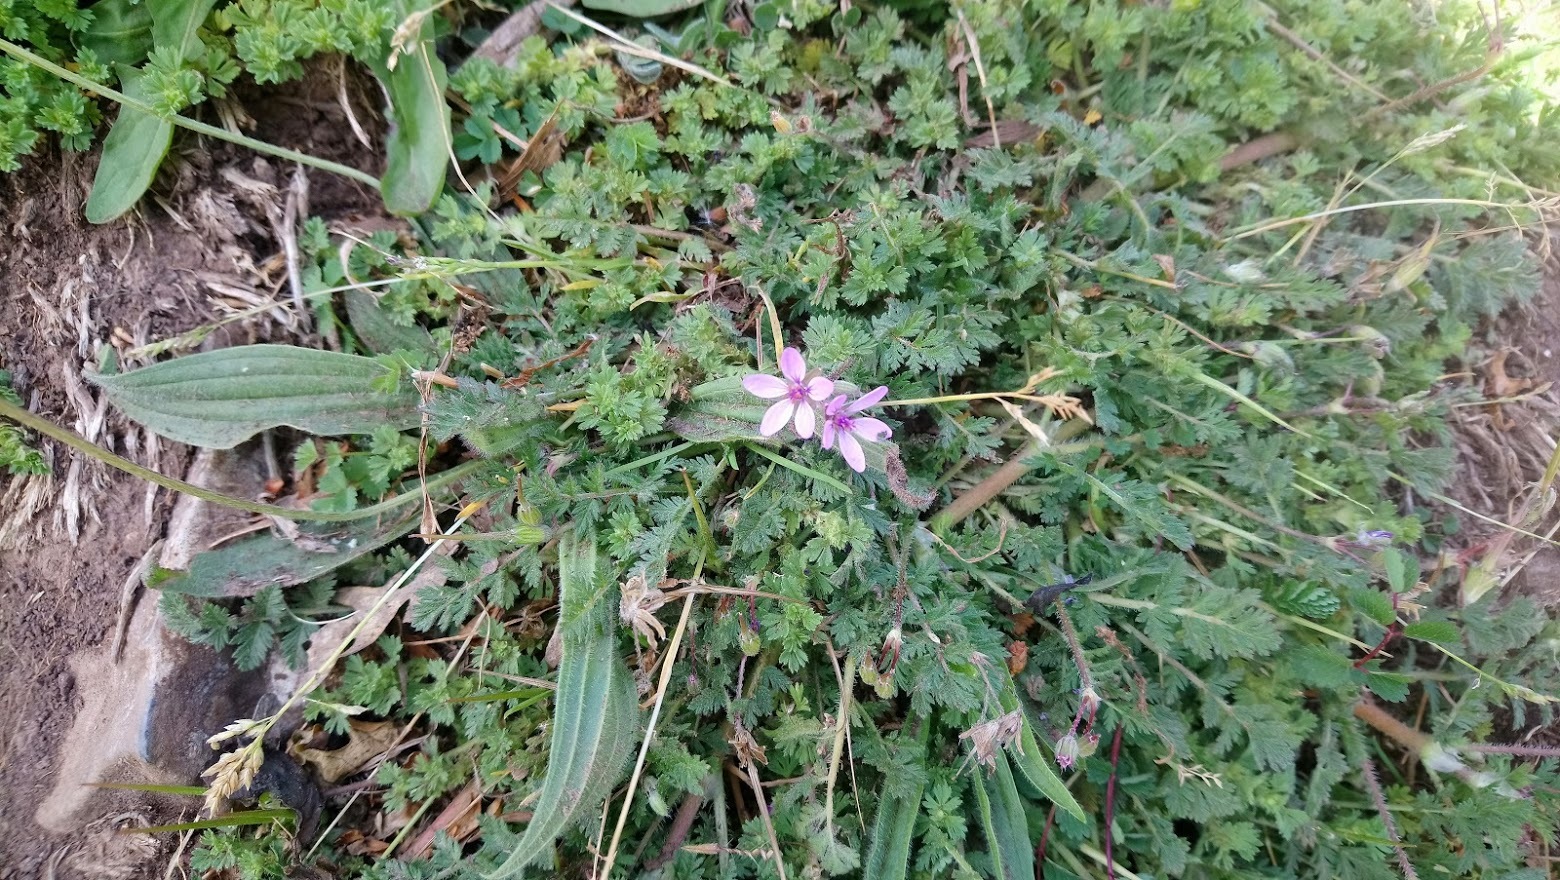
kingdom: Plantae
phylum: Tracheophyta
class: Magnoliopsida
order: Geraniales
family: Geraniaceae
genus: Erodium
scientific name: Erodium cicutarium
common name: Common stork's-bill
